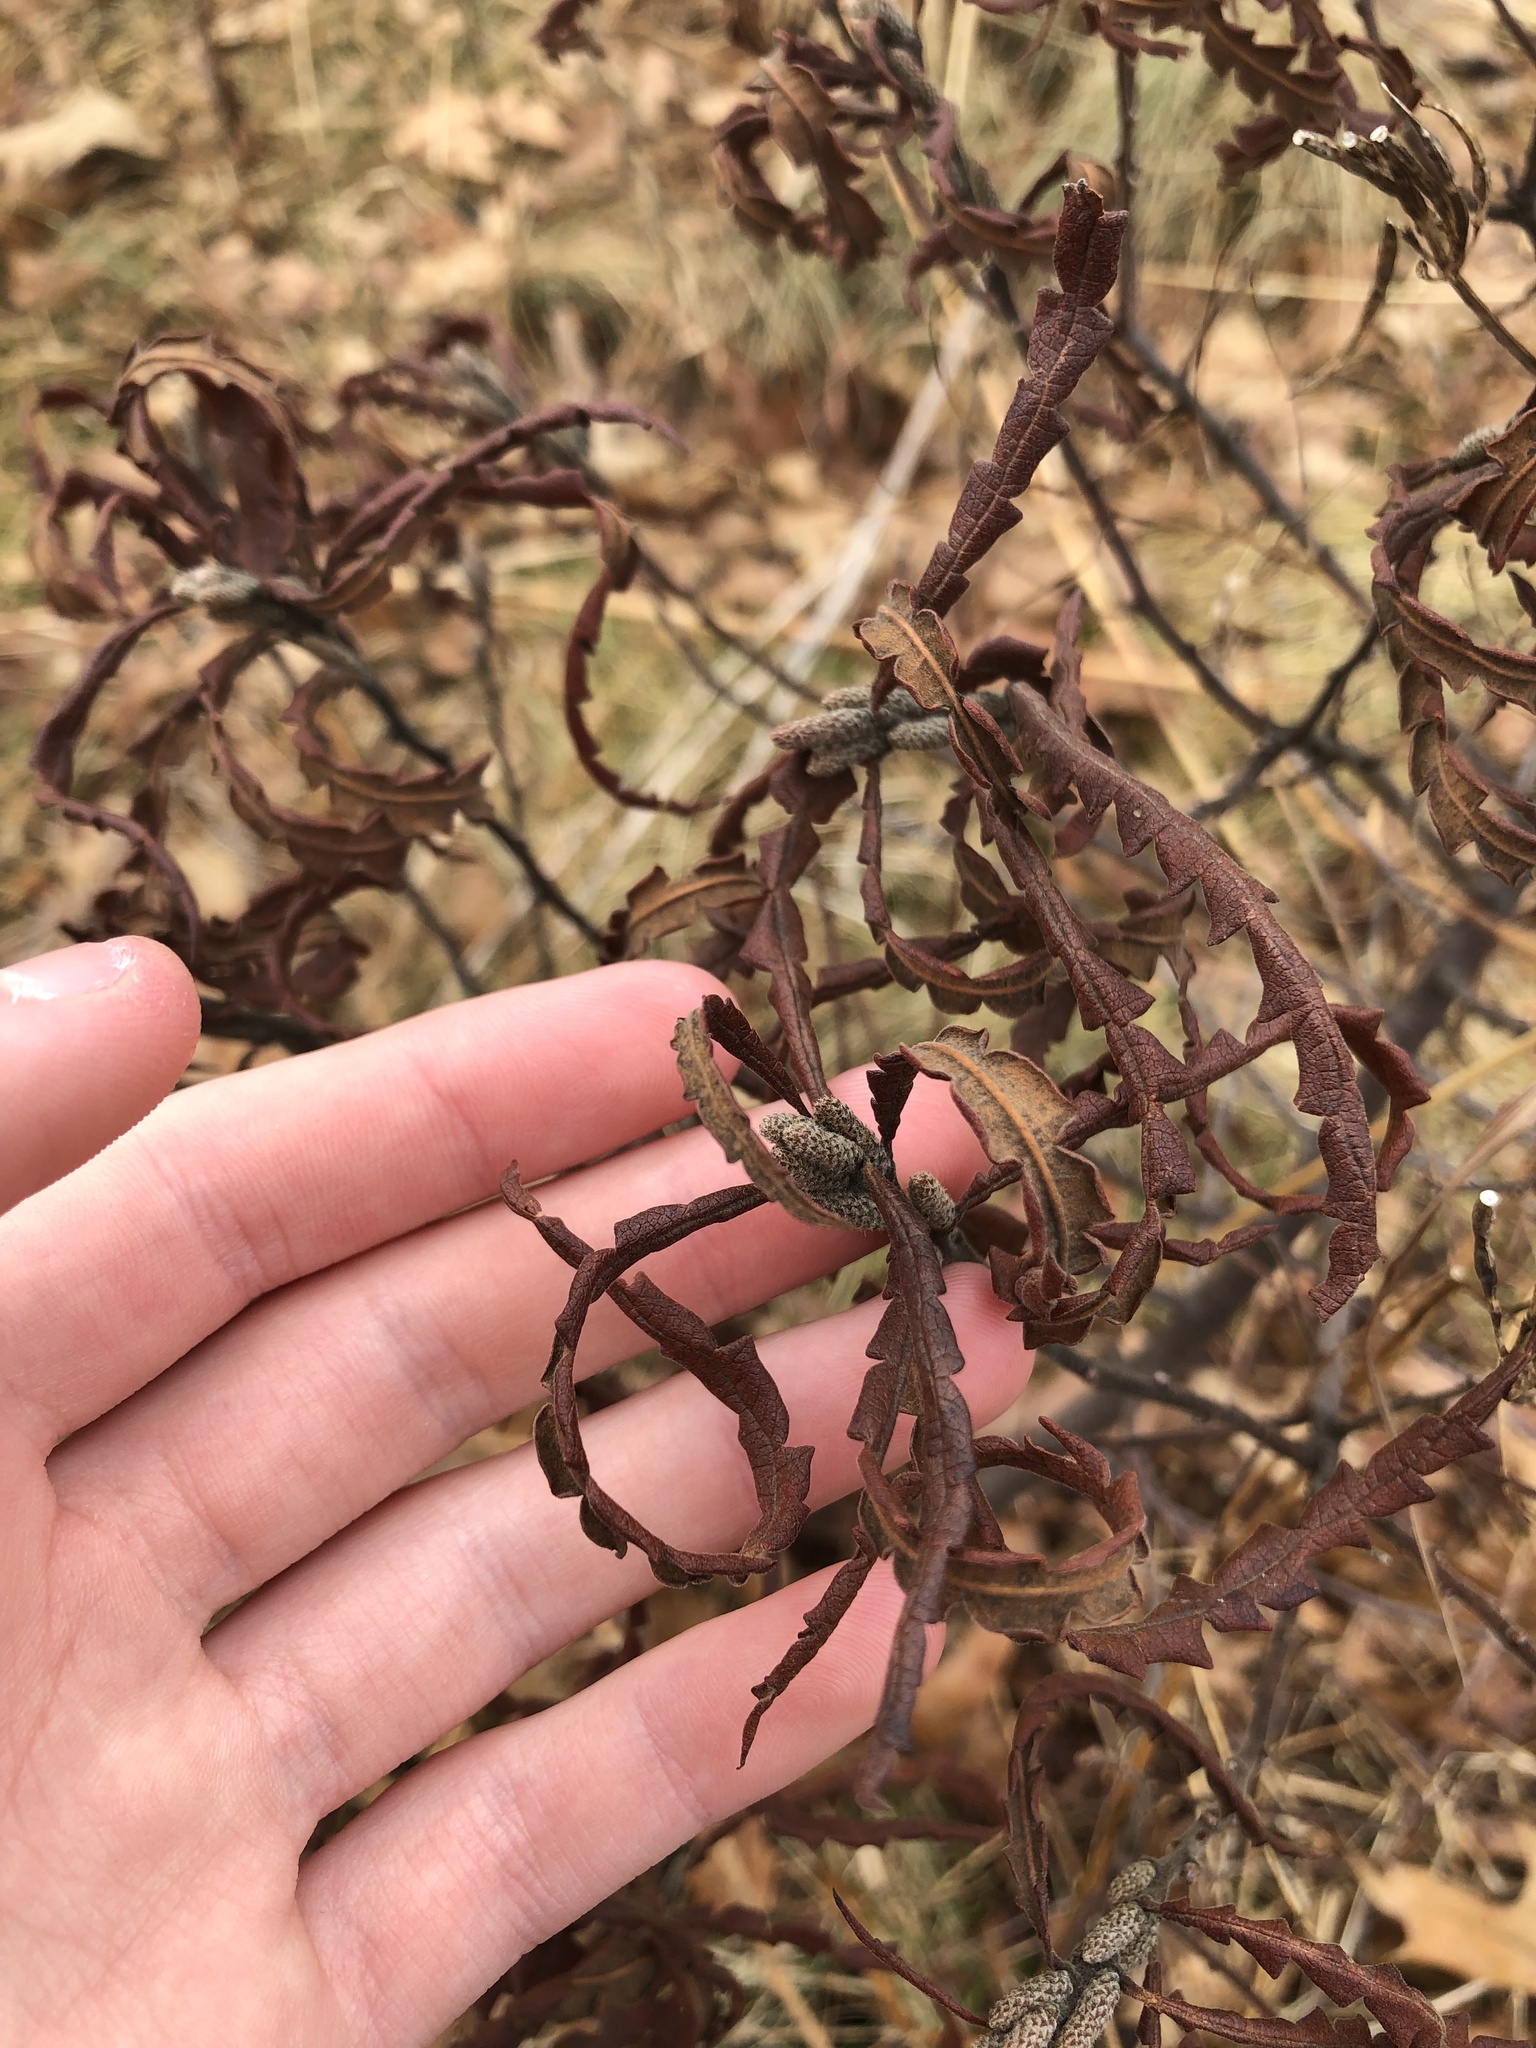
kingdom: Plantae
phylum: Tracheophyta
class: Magnoliopsida
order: Fagales
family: Myricaceae
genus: Comptonia
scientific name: Comptonia peregrina
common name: Sweet-fern
